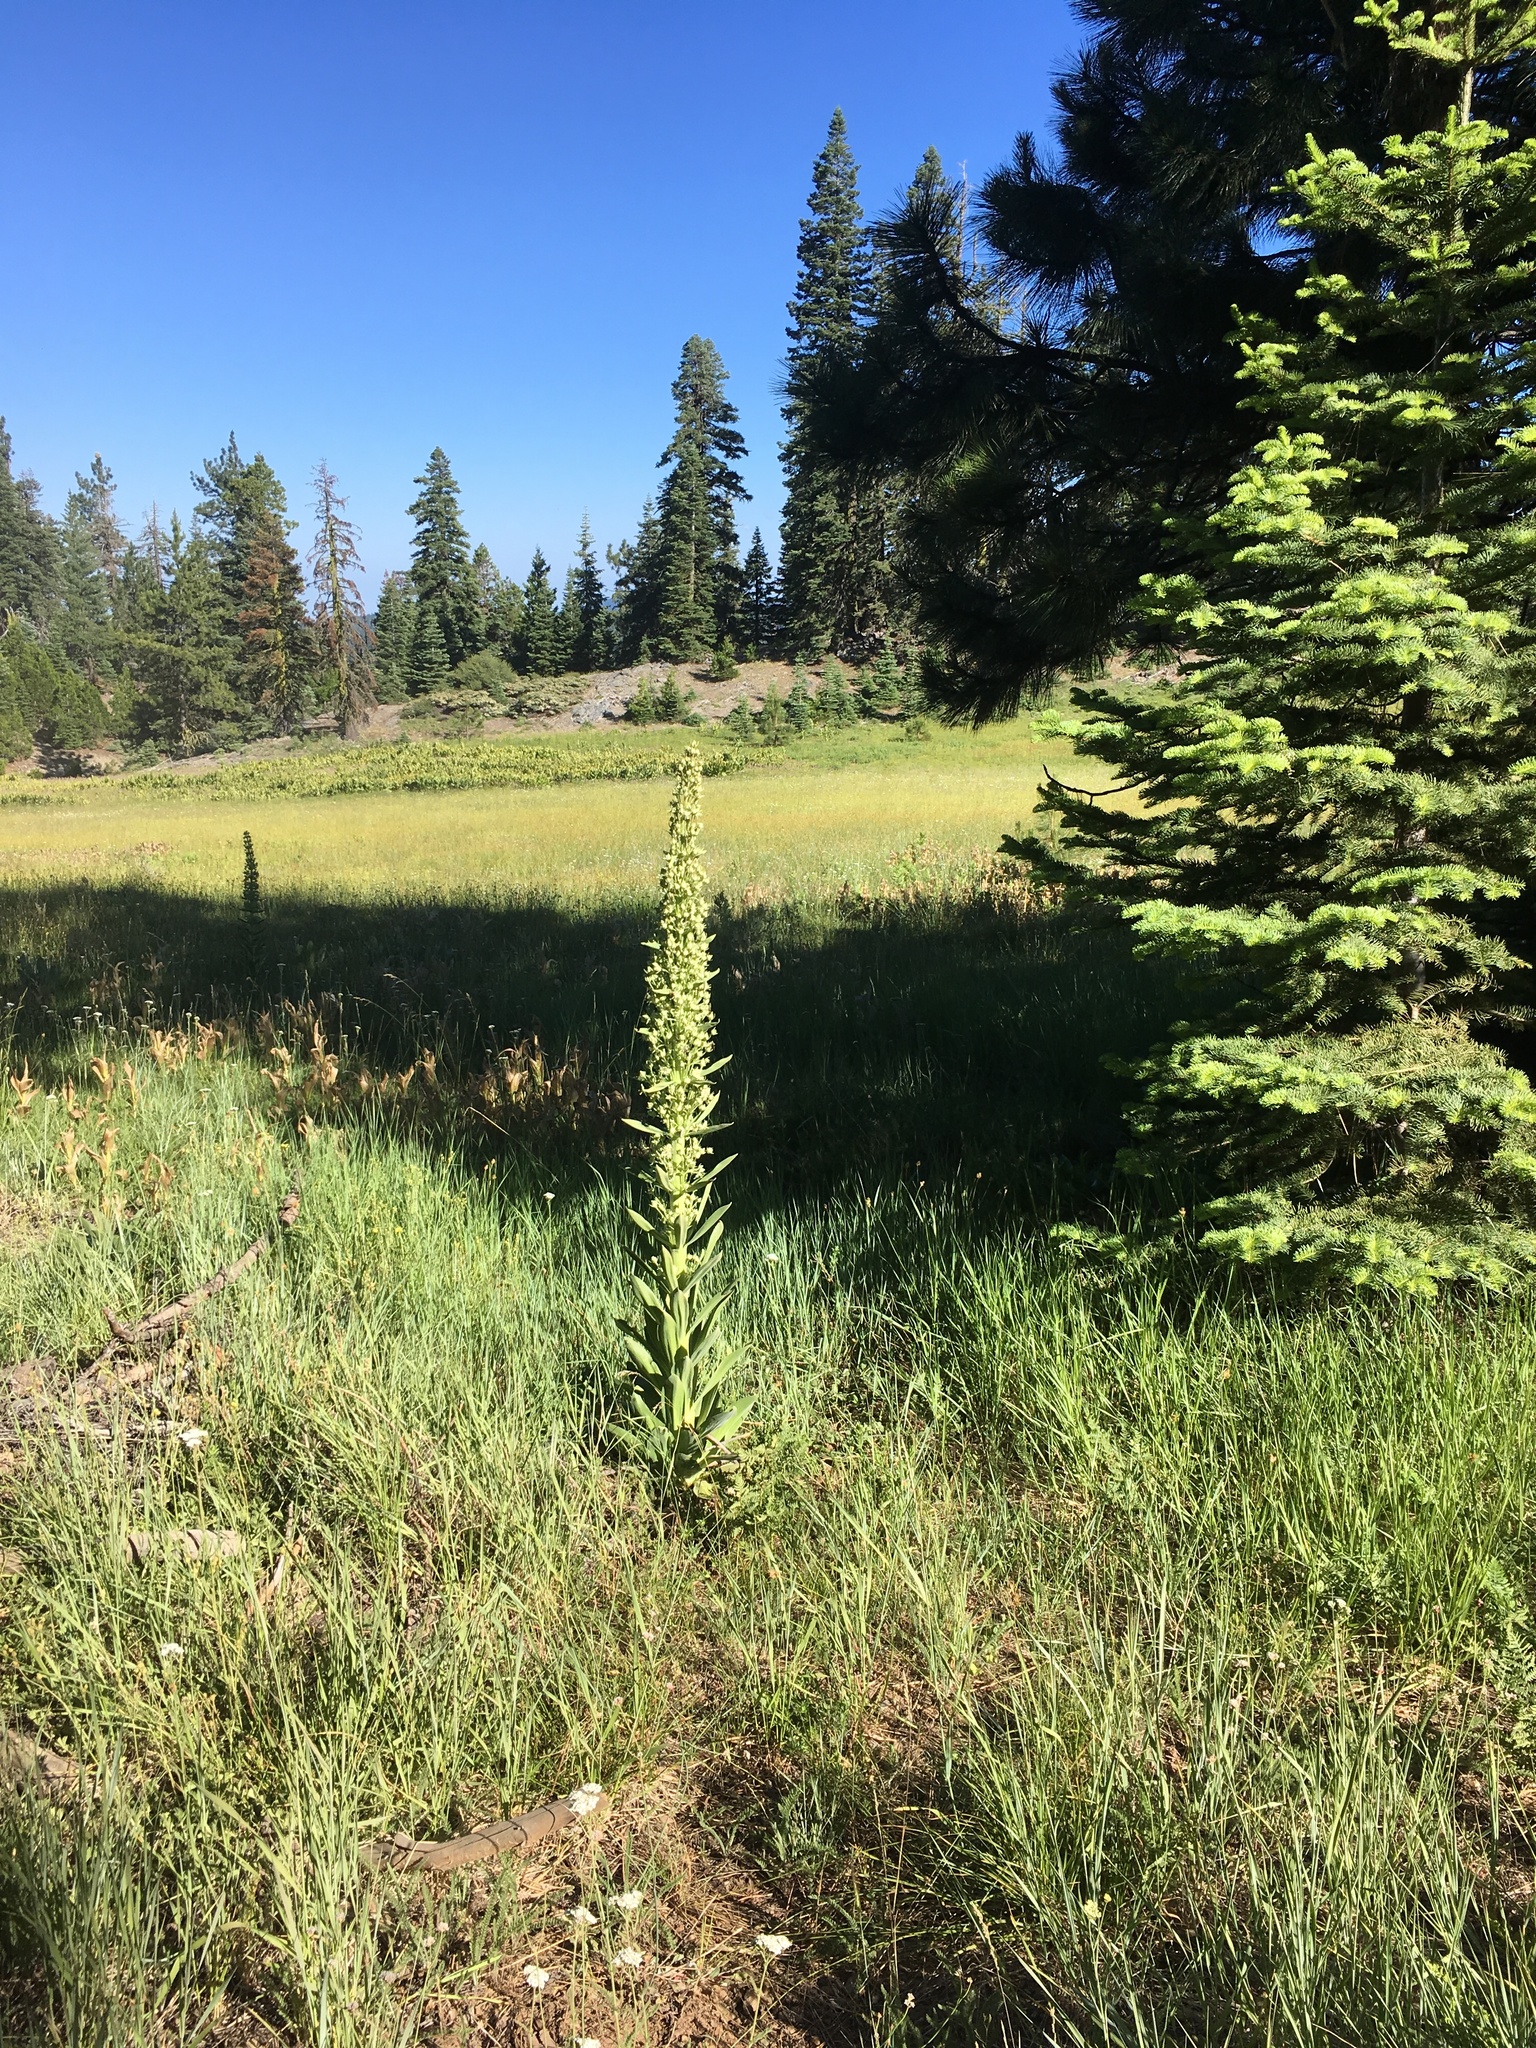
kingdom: Plantae
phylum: Tracheophyta
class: Magnoliopsida
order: Gentianales
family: Gentianaceae
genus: Frasera
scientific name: Frasera speciosa
